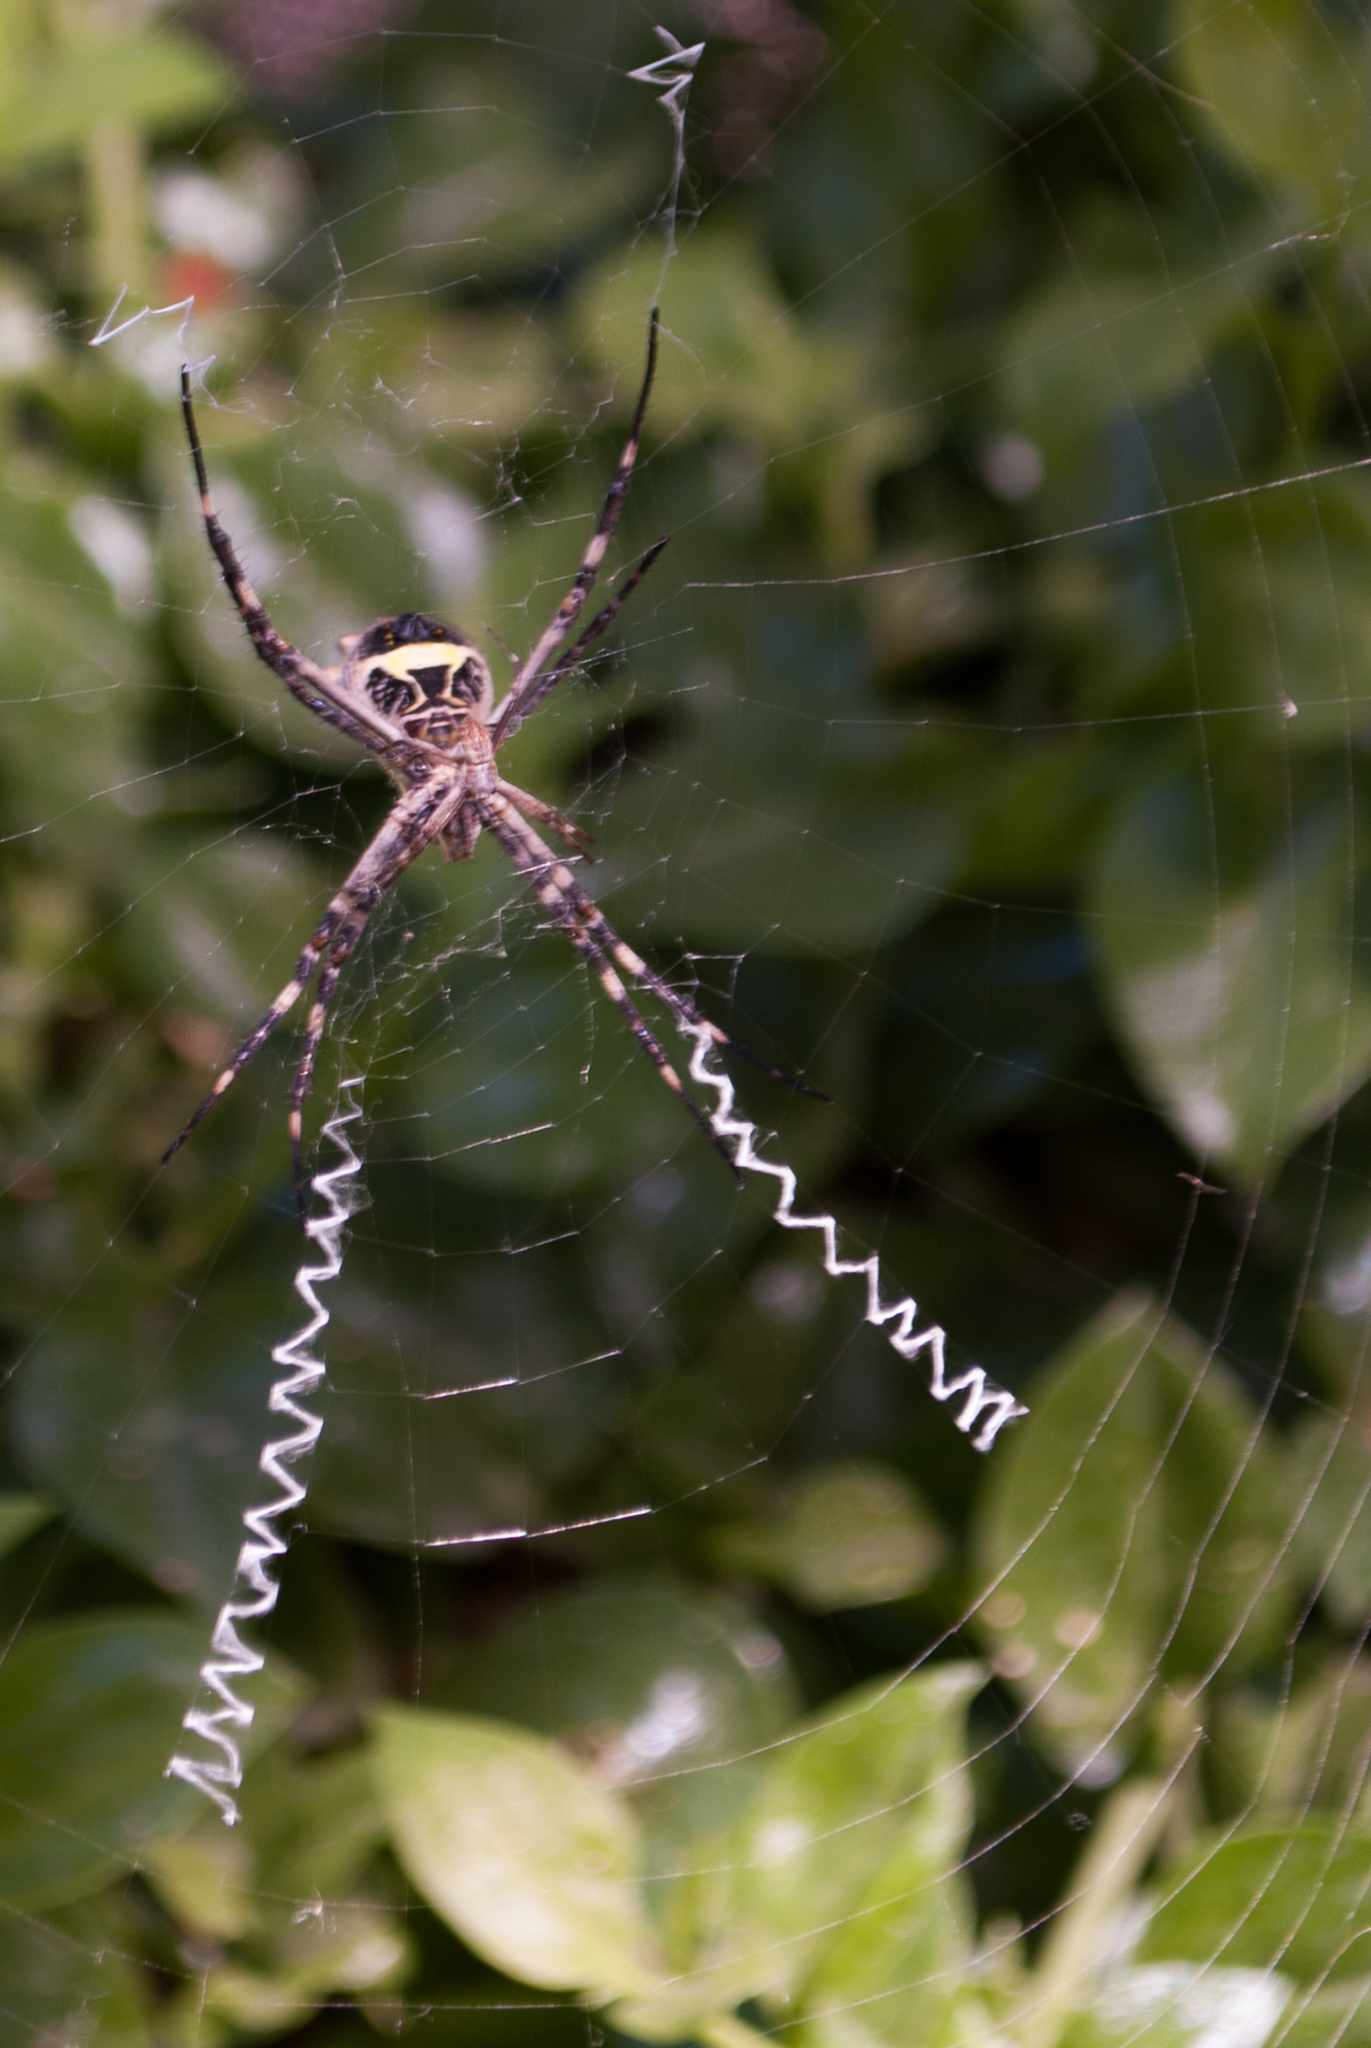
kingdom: Animalia
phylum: Arthropoda
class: Arachnida
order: Araneae
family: Araneidae
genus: Argiope
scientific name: Argiope argentata
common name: Orb weavers
